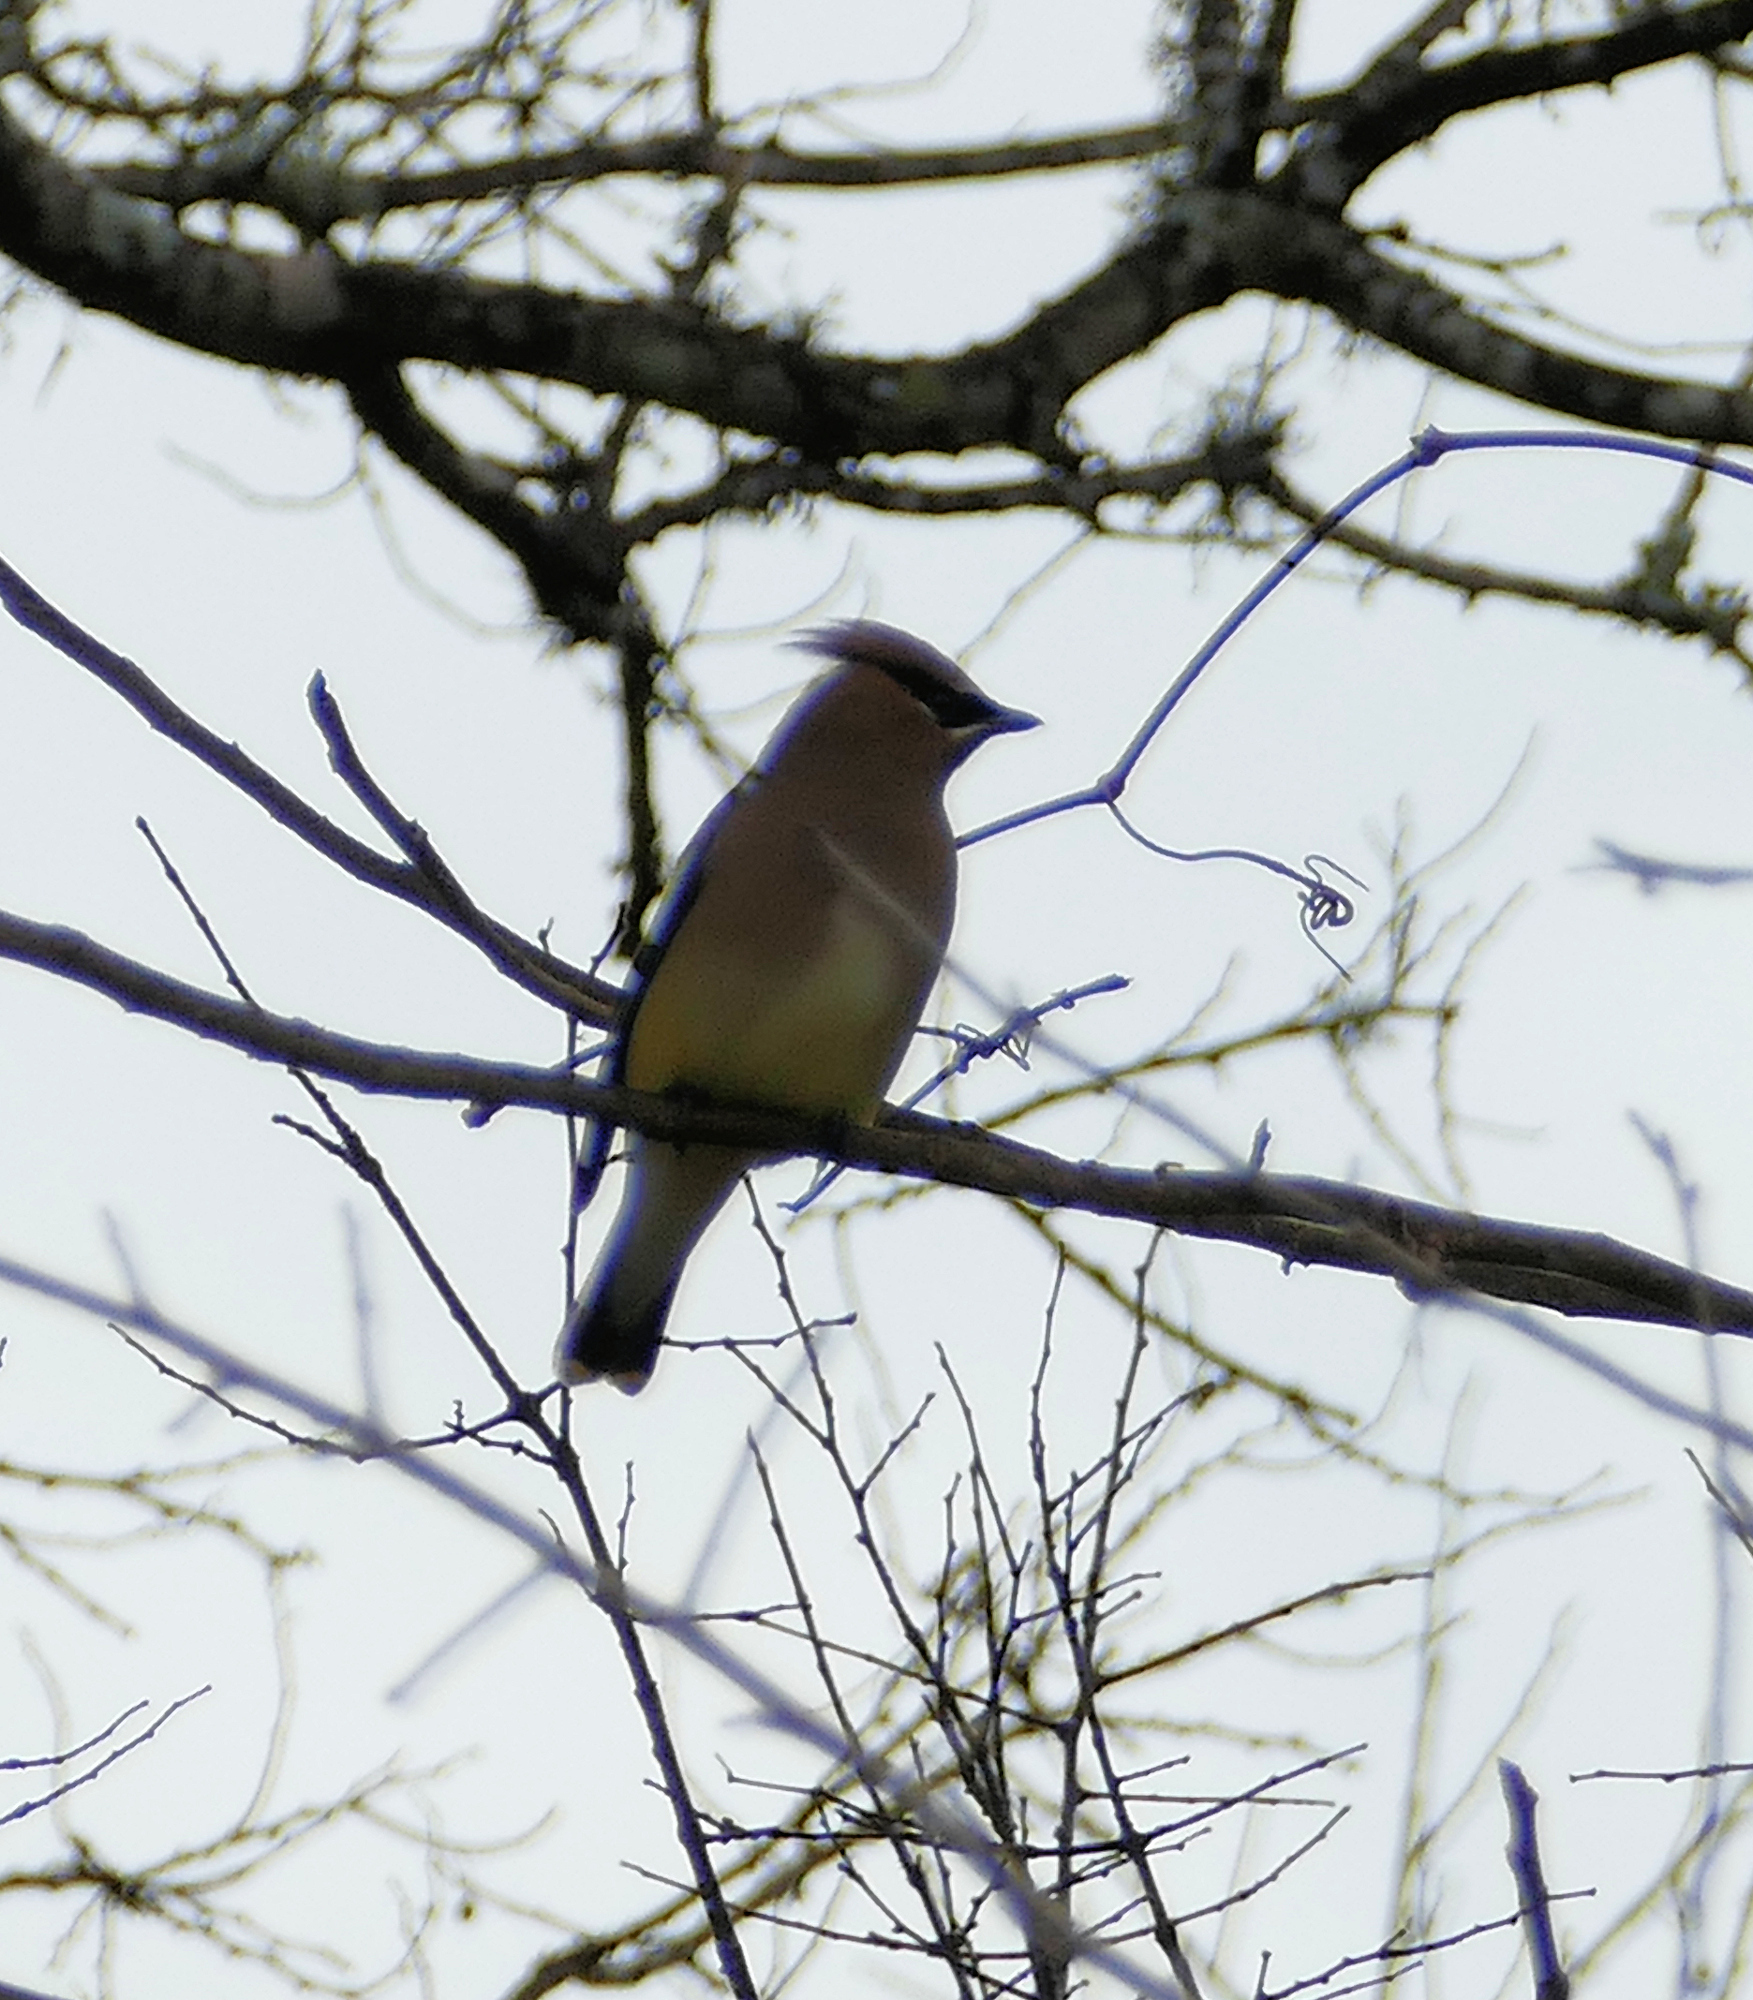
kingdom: Animalia
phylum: Chordata
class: Aves
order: Passeriformes
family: Bombycillidae
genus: Bombycilla
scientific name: Bombycilla cedrorum
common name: Cedar waxwing
